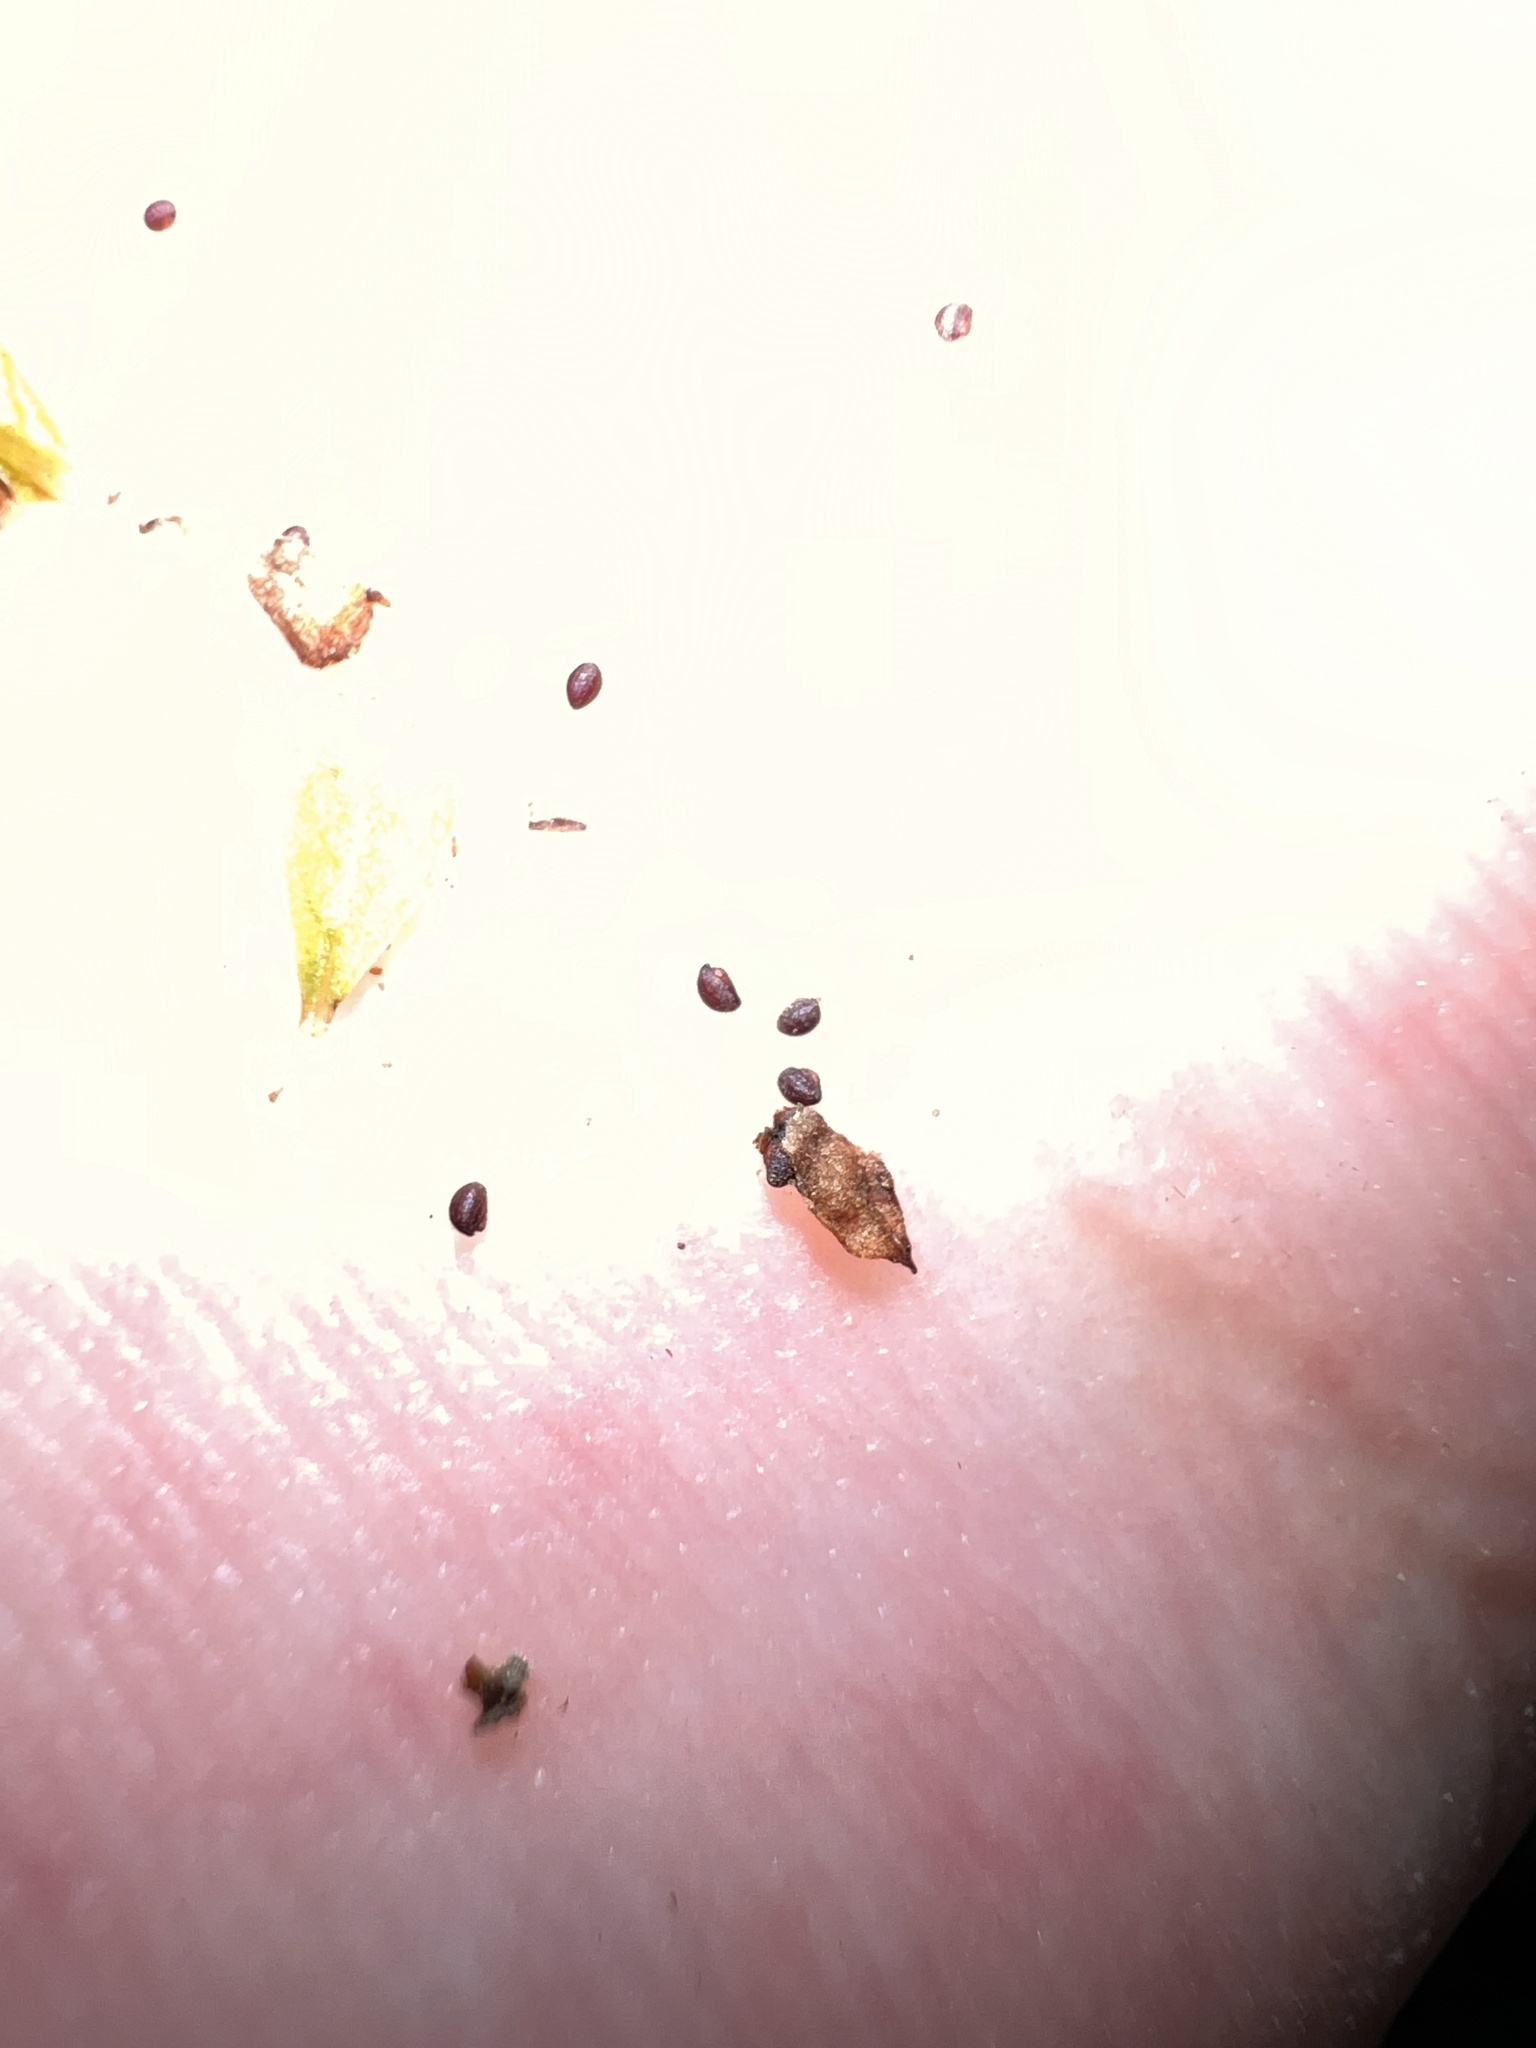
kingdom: Plantae
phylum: Tracheophyta
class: Magnoliopsida
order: Myrtales
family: Onagraceae
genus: Ludwigia
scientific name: Ludwigia microcarpa
